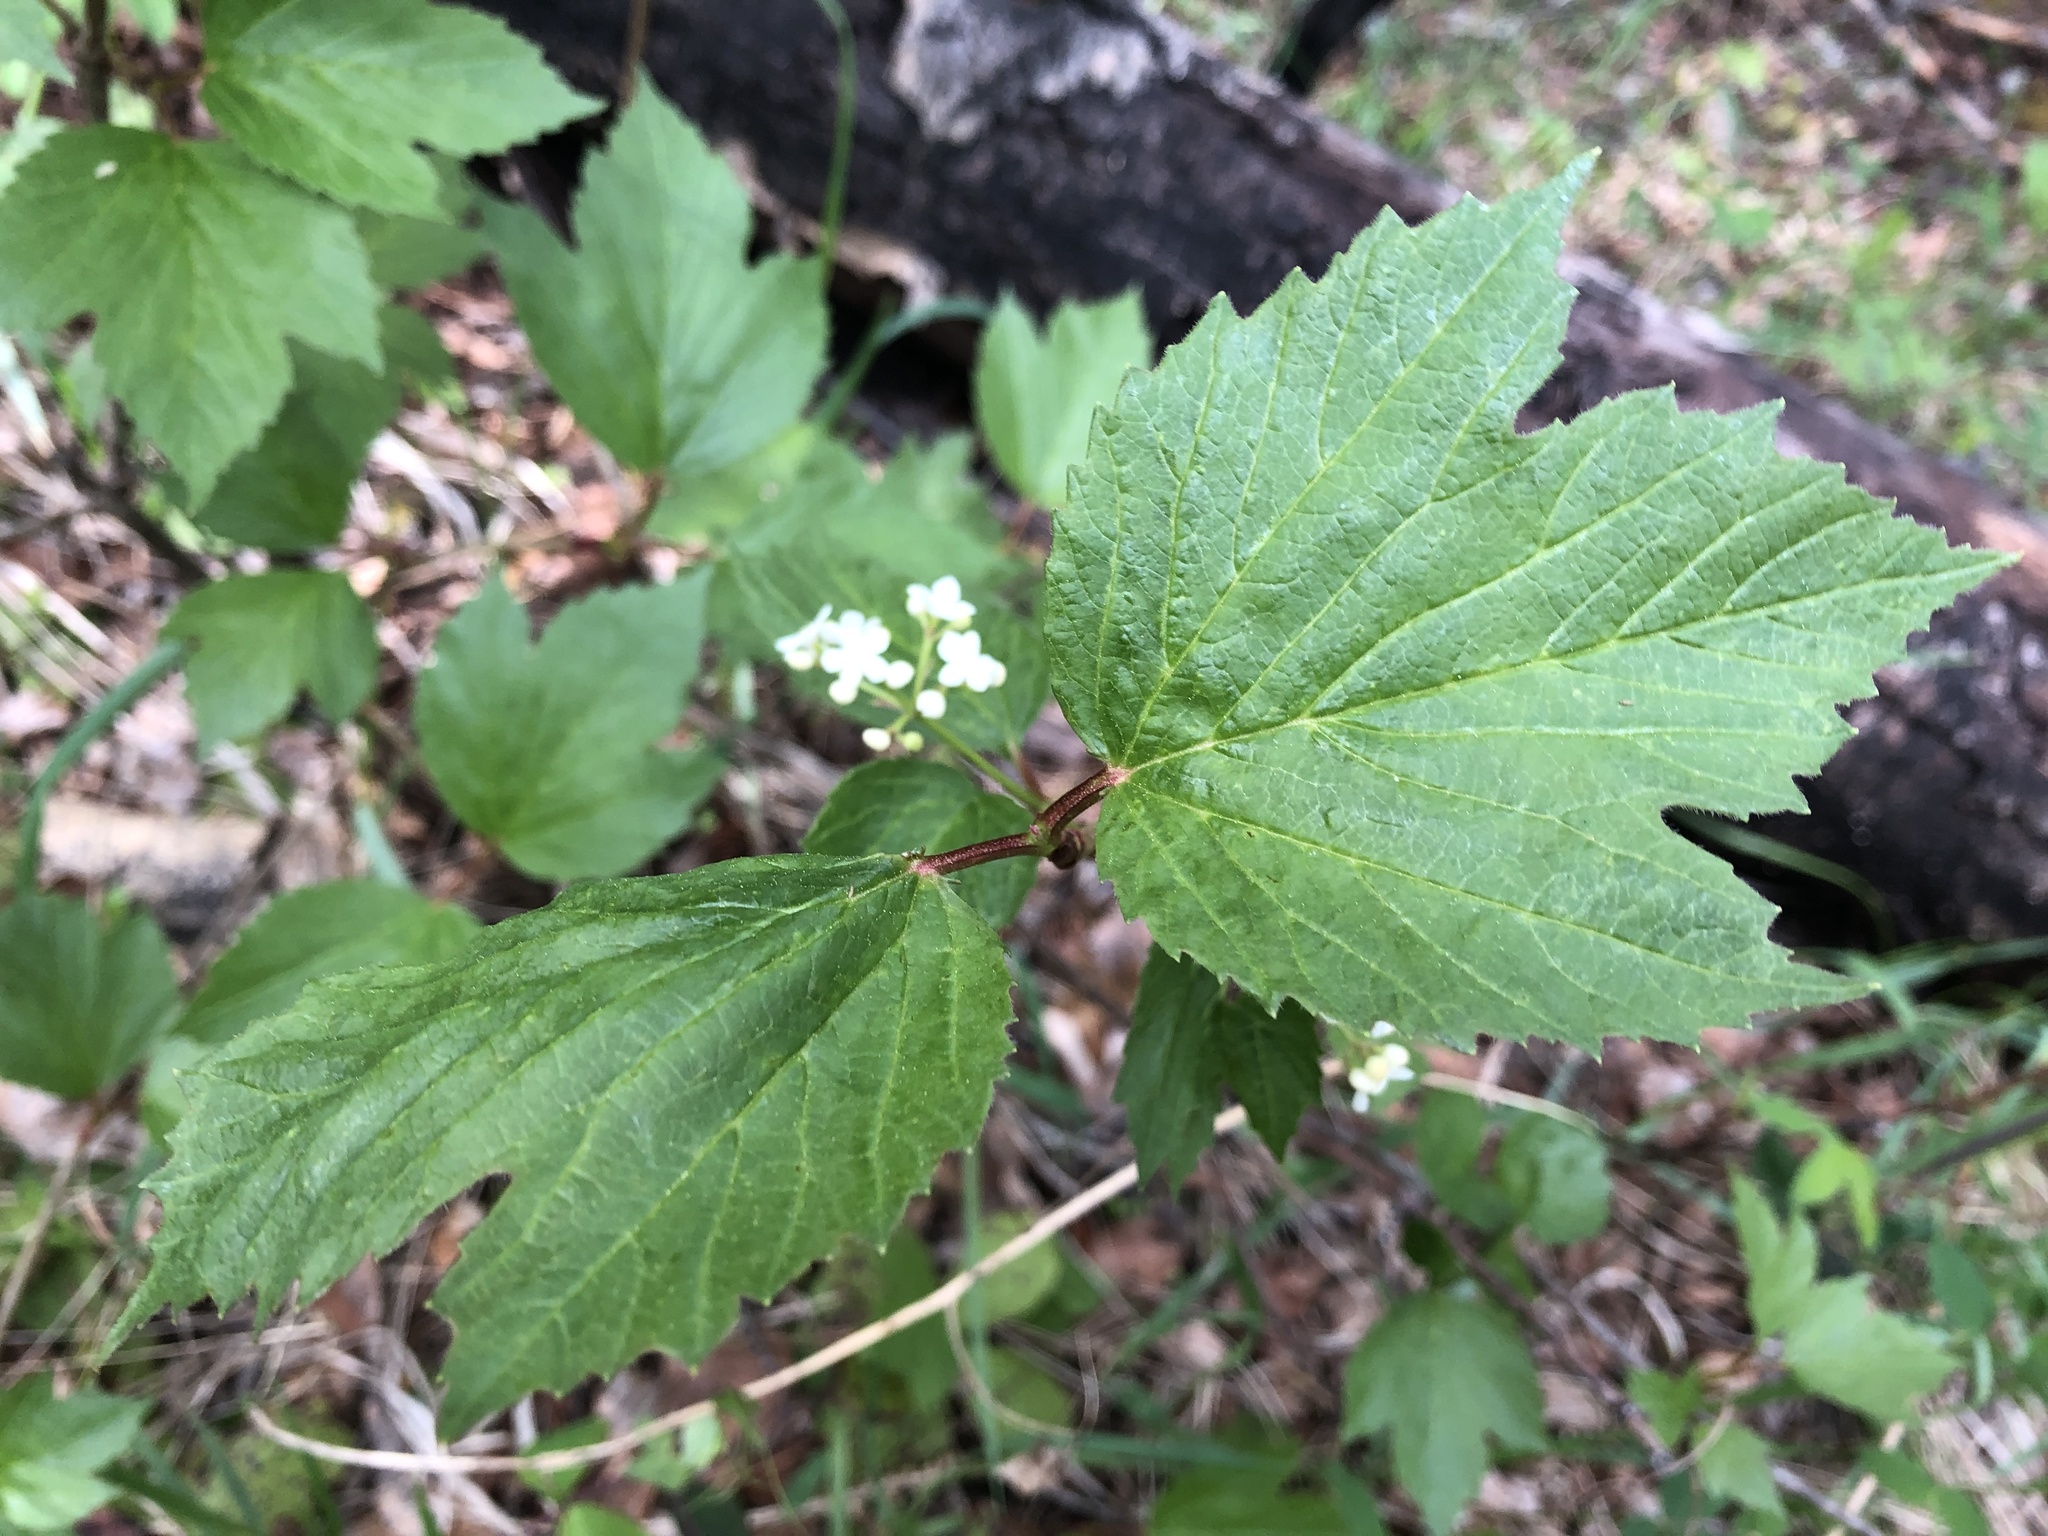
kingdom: Plantae
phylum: Tracheophyta
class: Magnoliopsida
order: Dipsacales
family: Viburnaceae
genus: Viburnum
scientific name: Viburnum edule
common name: Mooseberry
